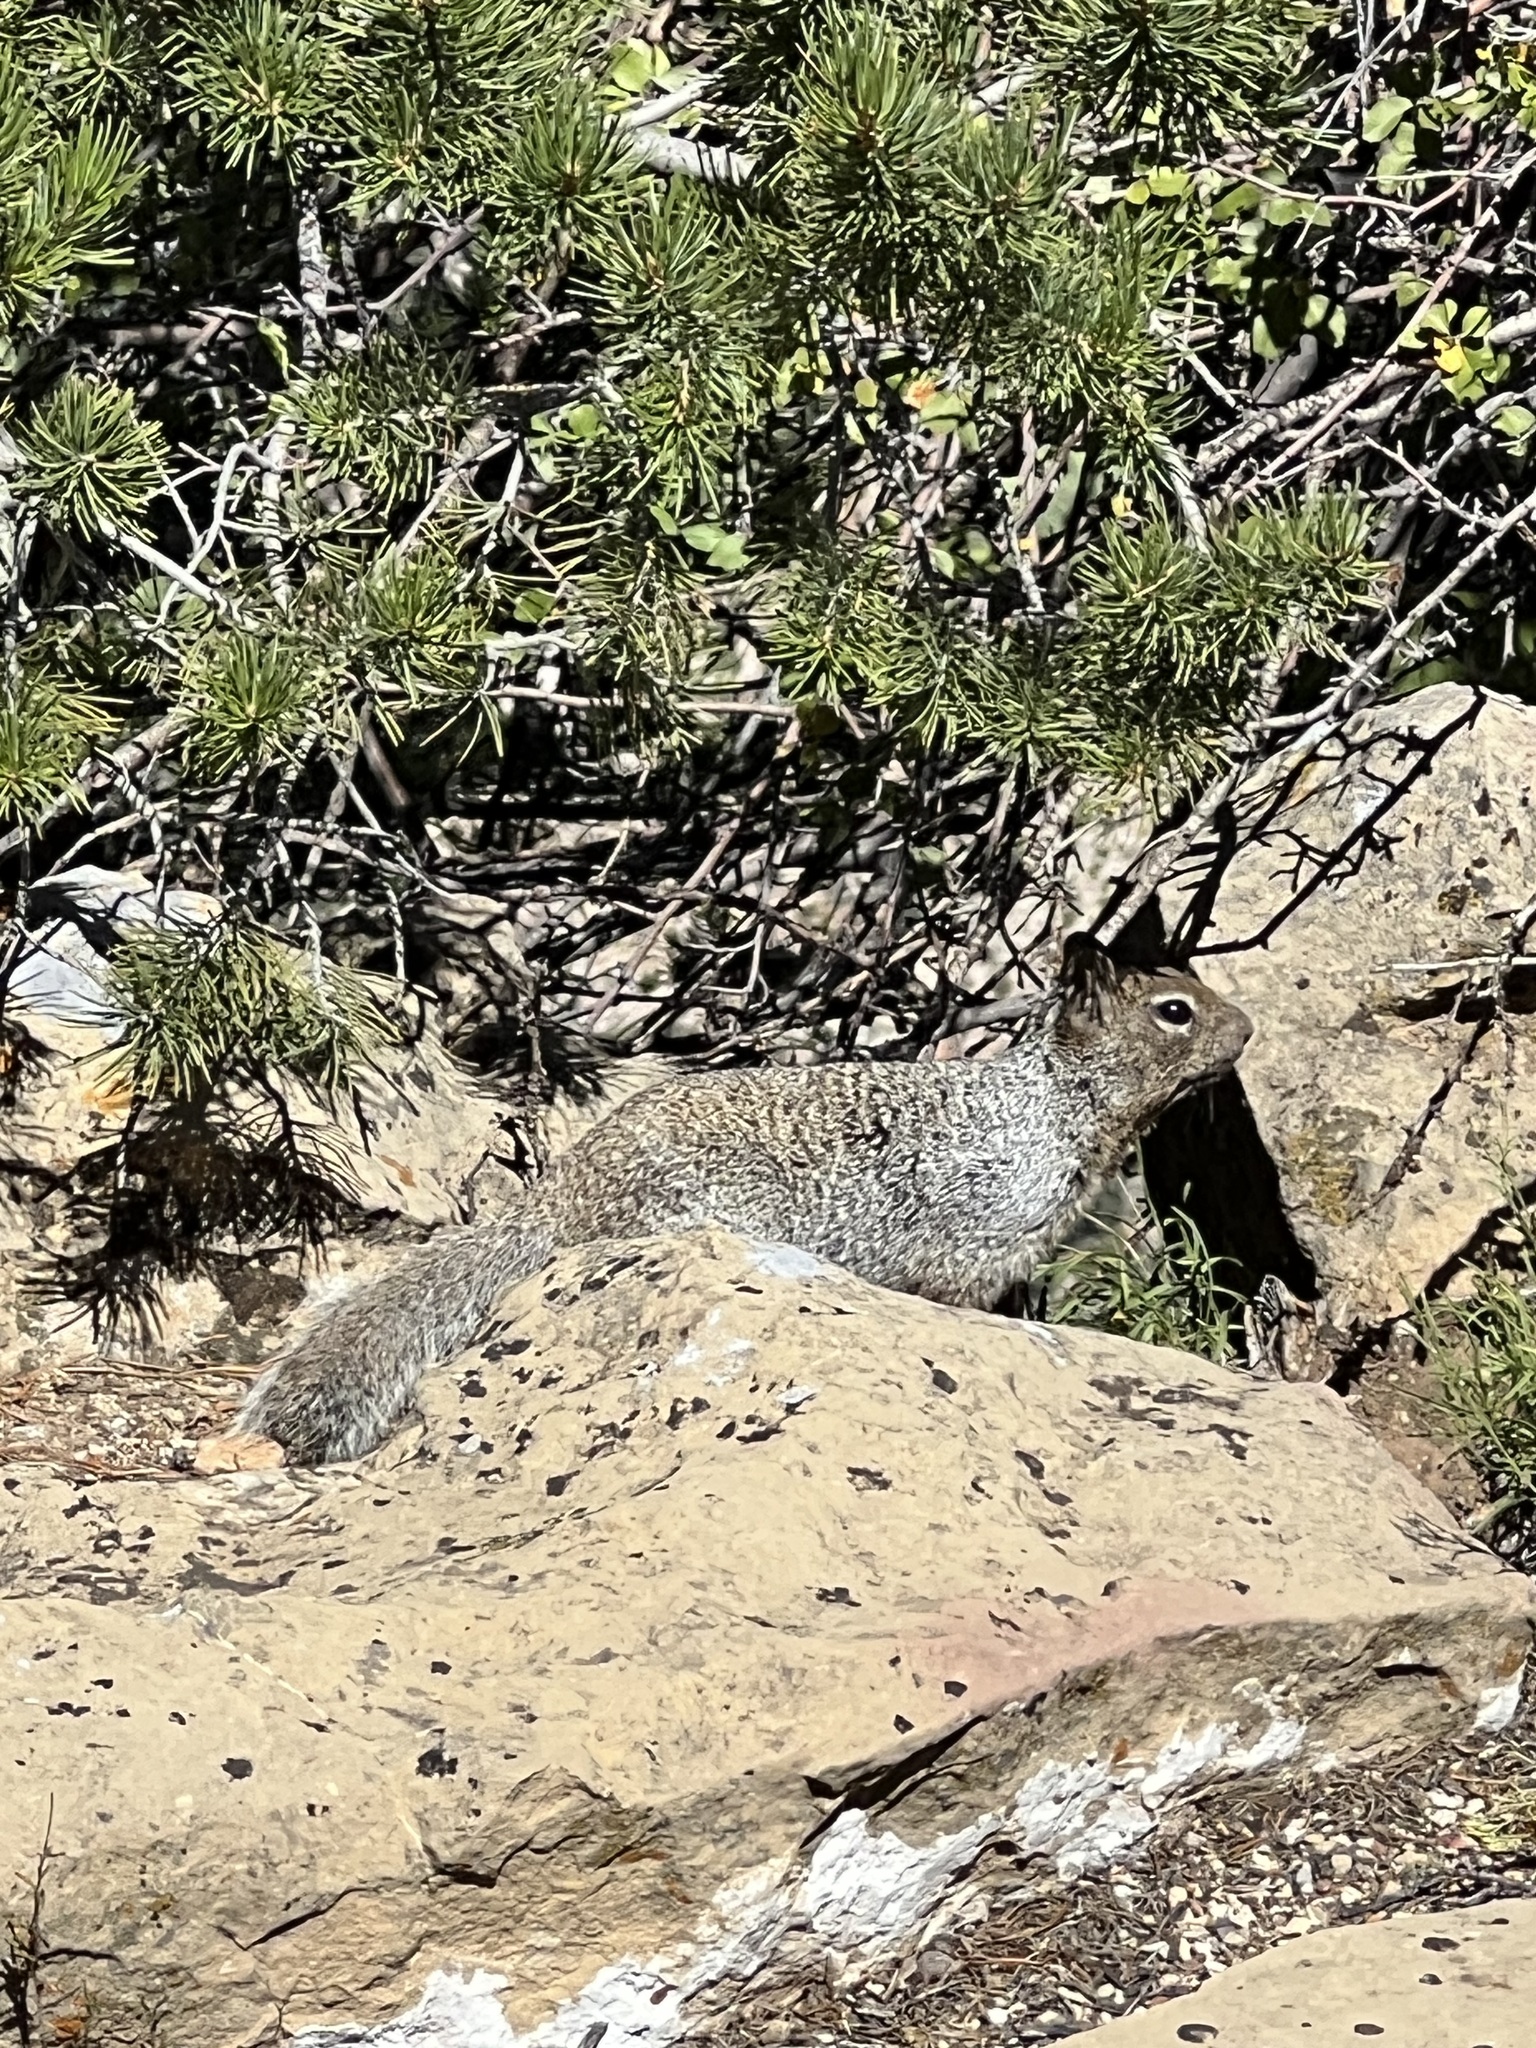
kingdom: Animalia
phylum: Chordata
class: Mammalia
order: Rodentia
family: Sciuridae
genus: Otospermophilus
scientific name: Otospermophilus variegatus
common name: Rock squirrel
